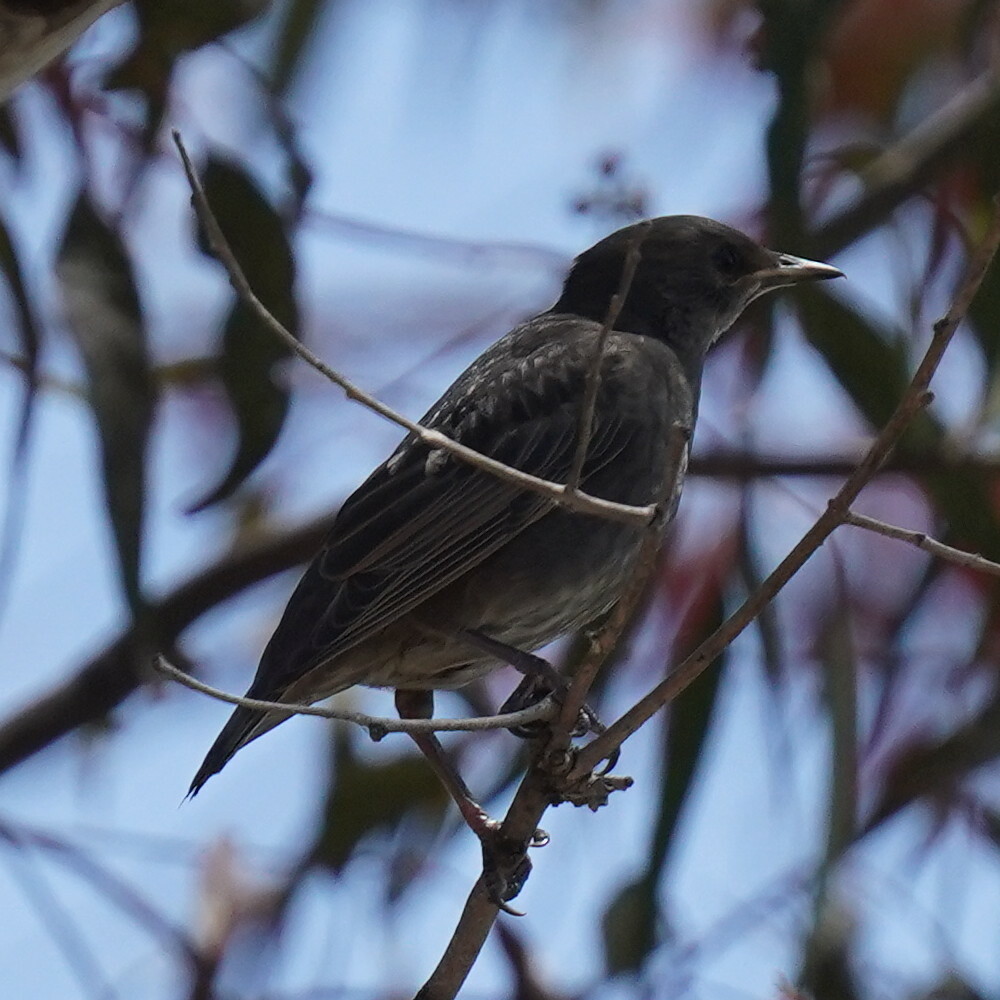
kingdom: Animalia
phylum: Chordata
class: Aves
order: Passeriformes
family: Sturnidae
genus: Sturnus
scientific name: Sturnus vulgaris
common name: Common starling
